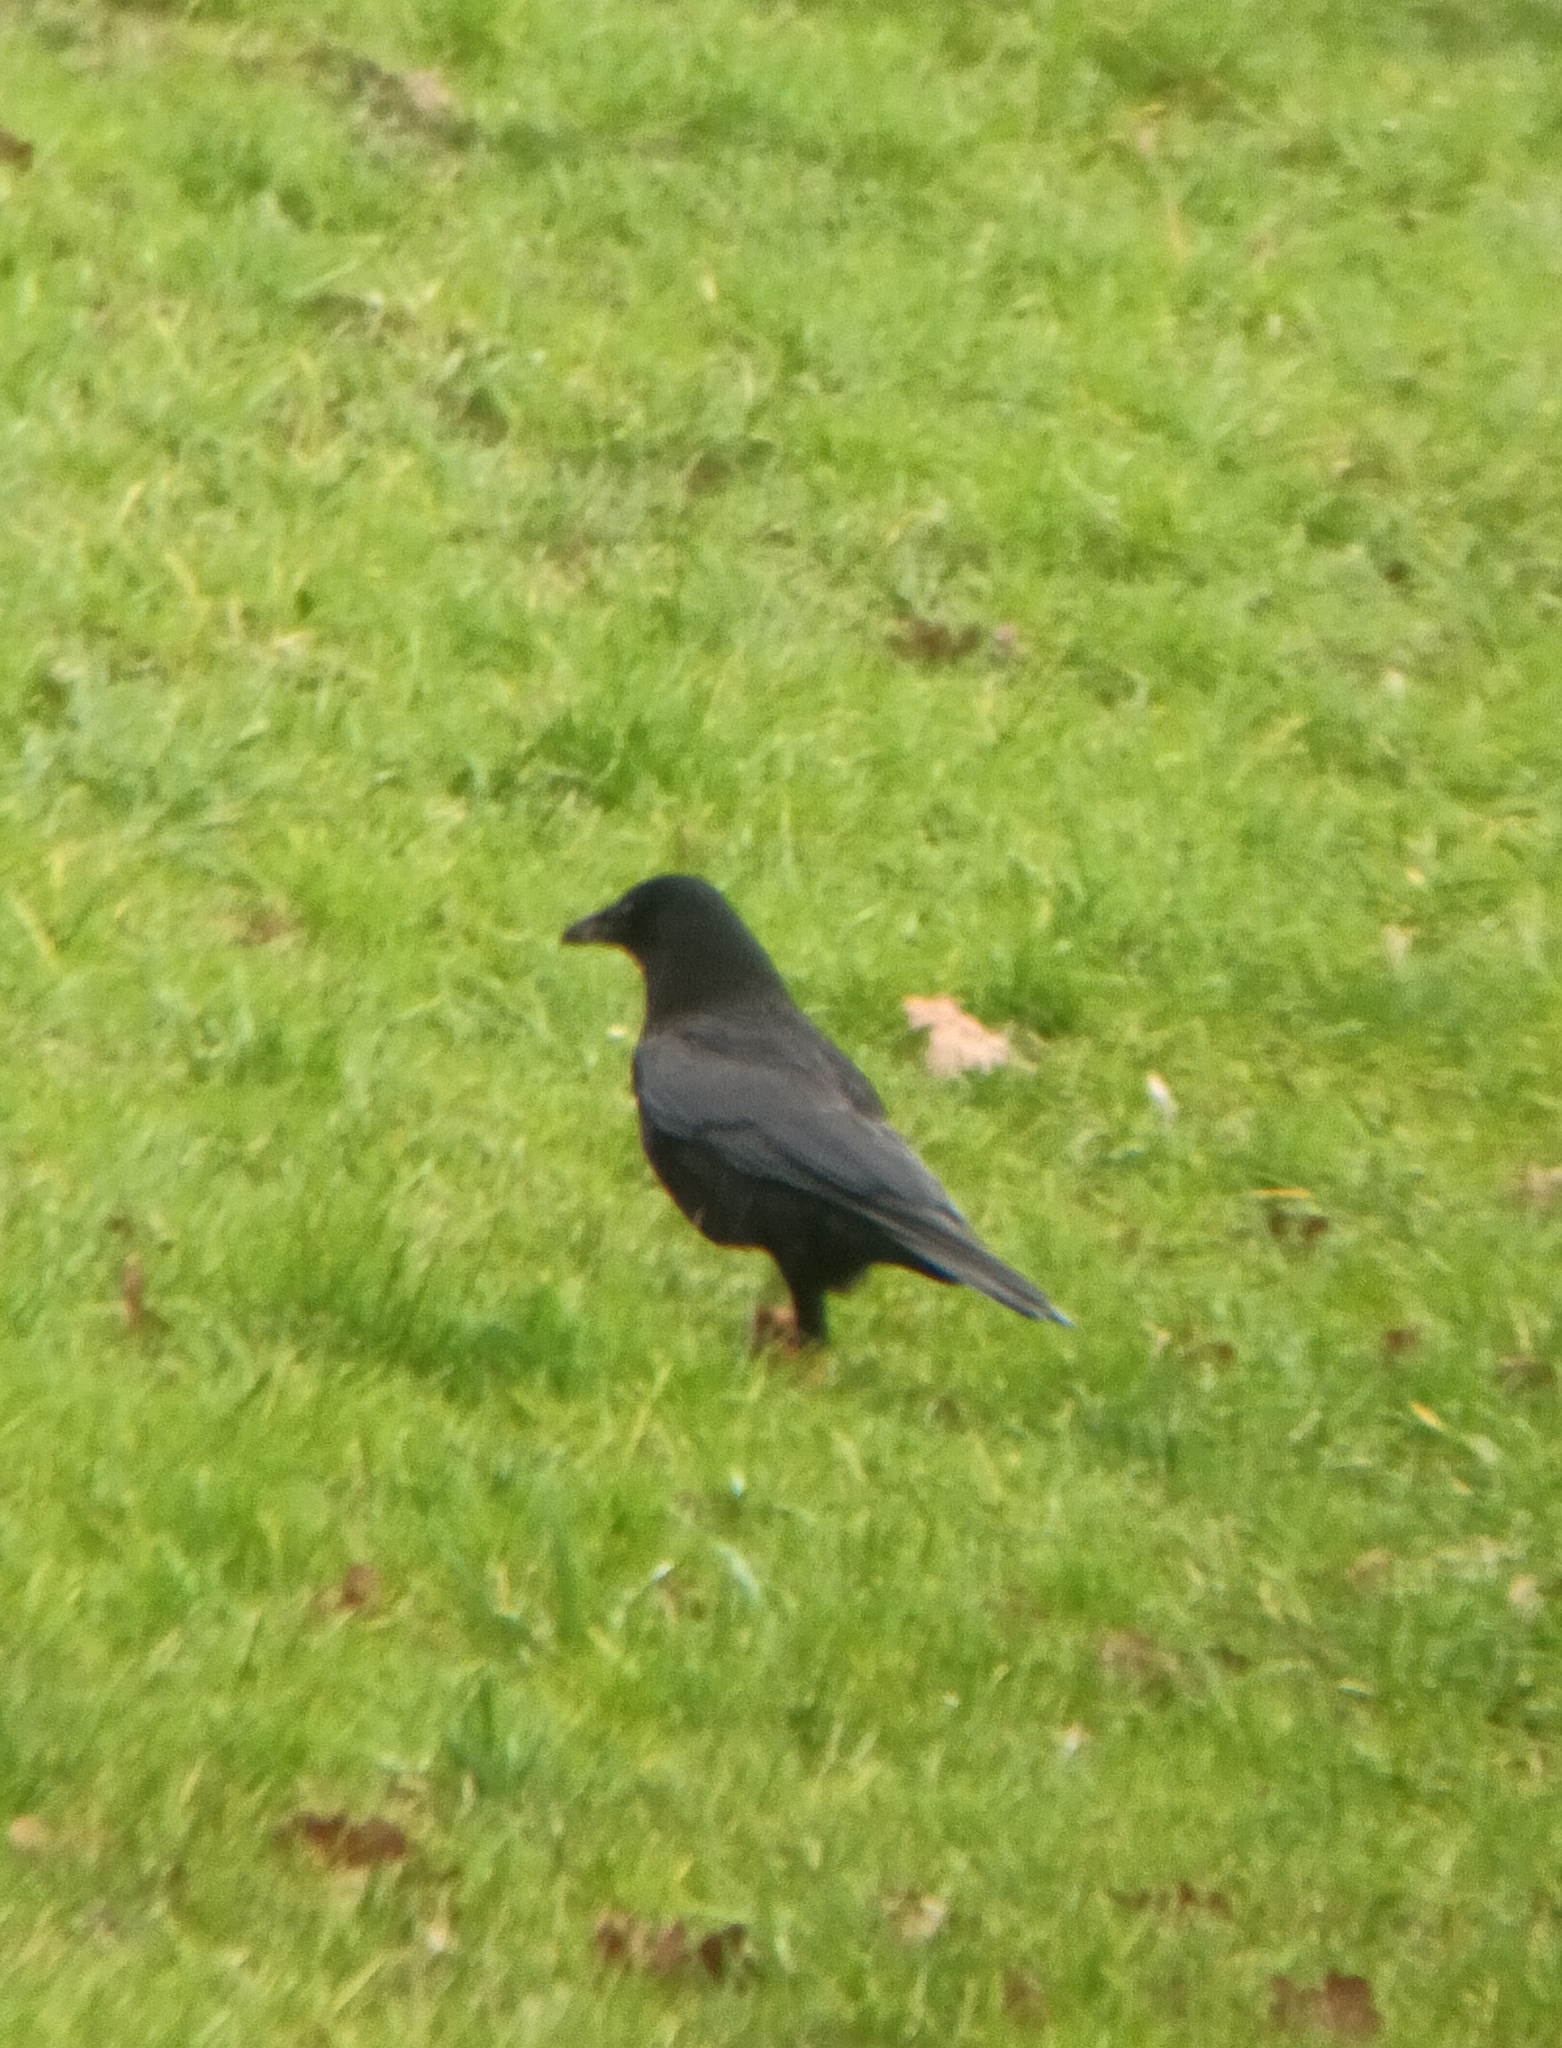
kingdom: Animalia
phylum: Chordata
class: Aves
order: Passeriformes
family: Corvidae
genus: Corvus
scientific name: Corvus corone
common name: Carrion crow
